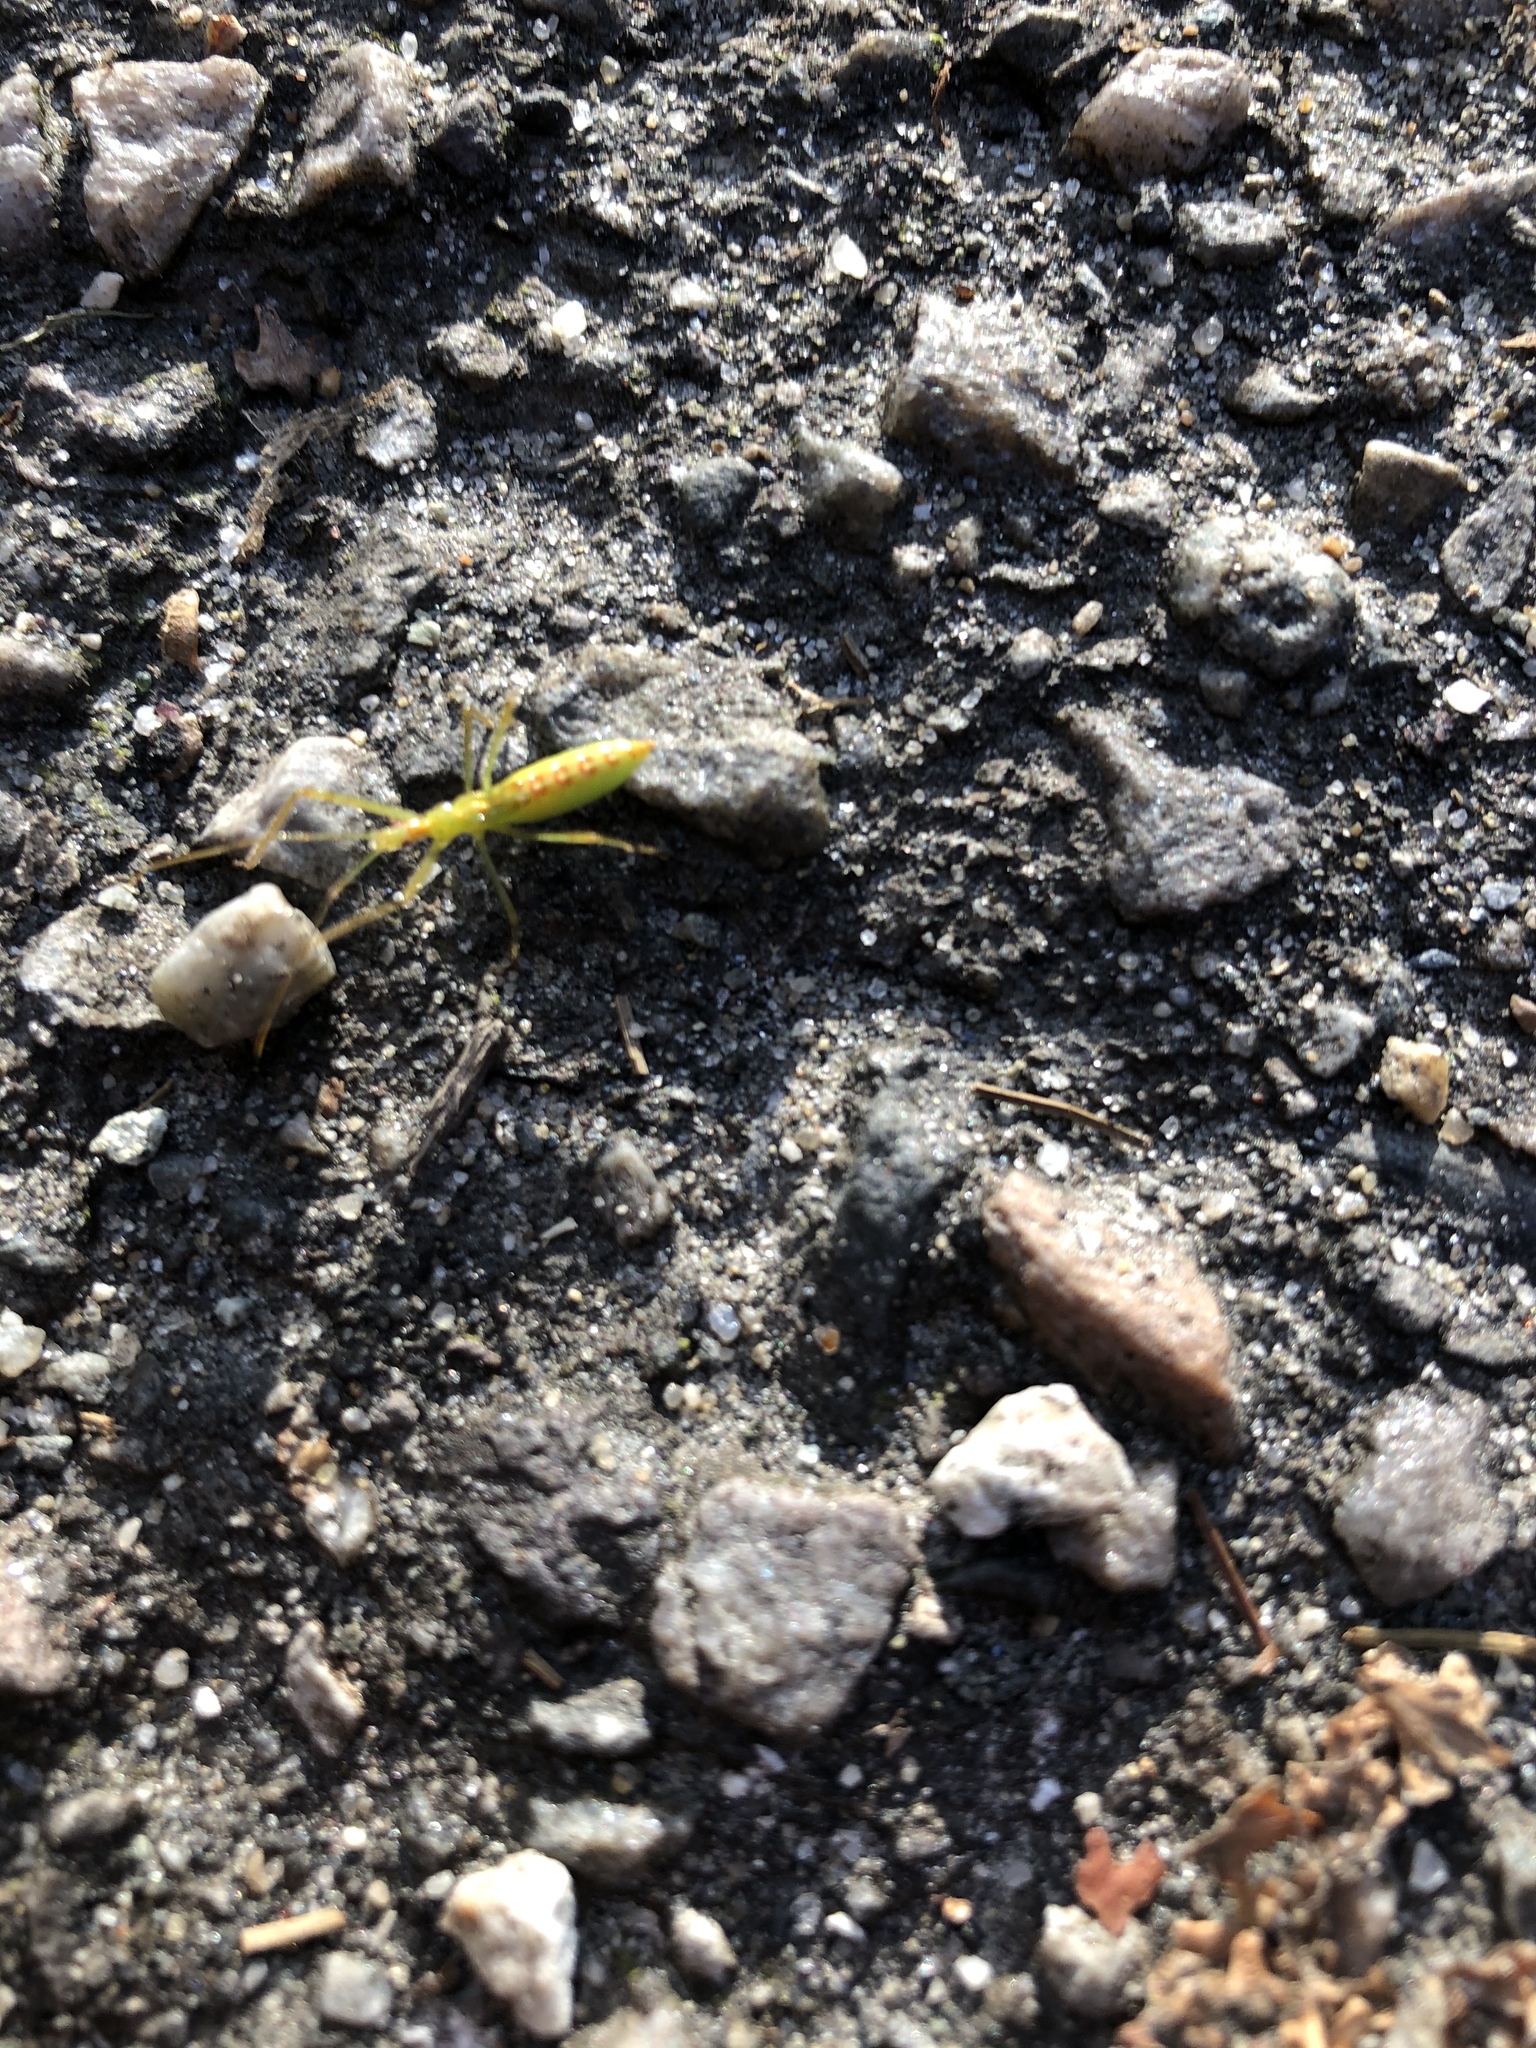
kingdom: Animalia
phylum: Arthropoda
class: Insecta
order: Hemiptera
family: Reduviidae
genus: Zelus
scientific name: Zelus luridus
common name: Pale green assassin bug
